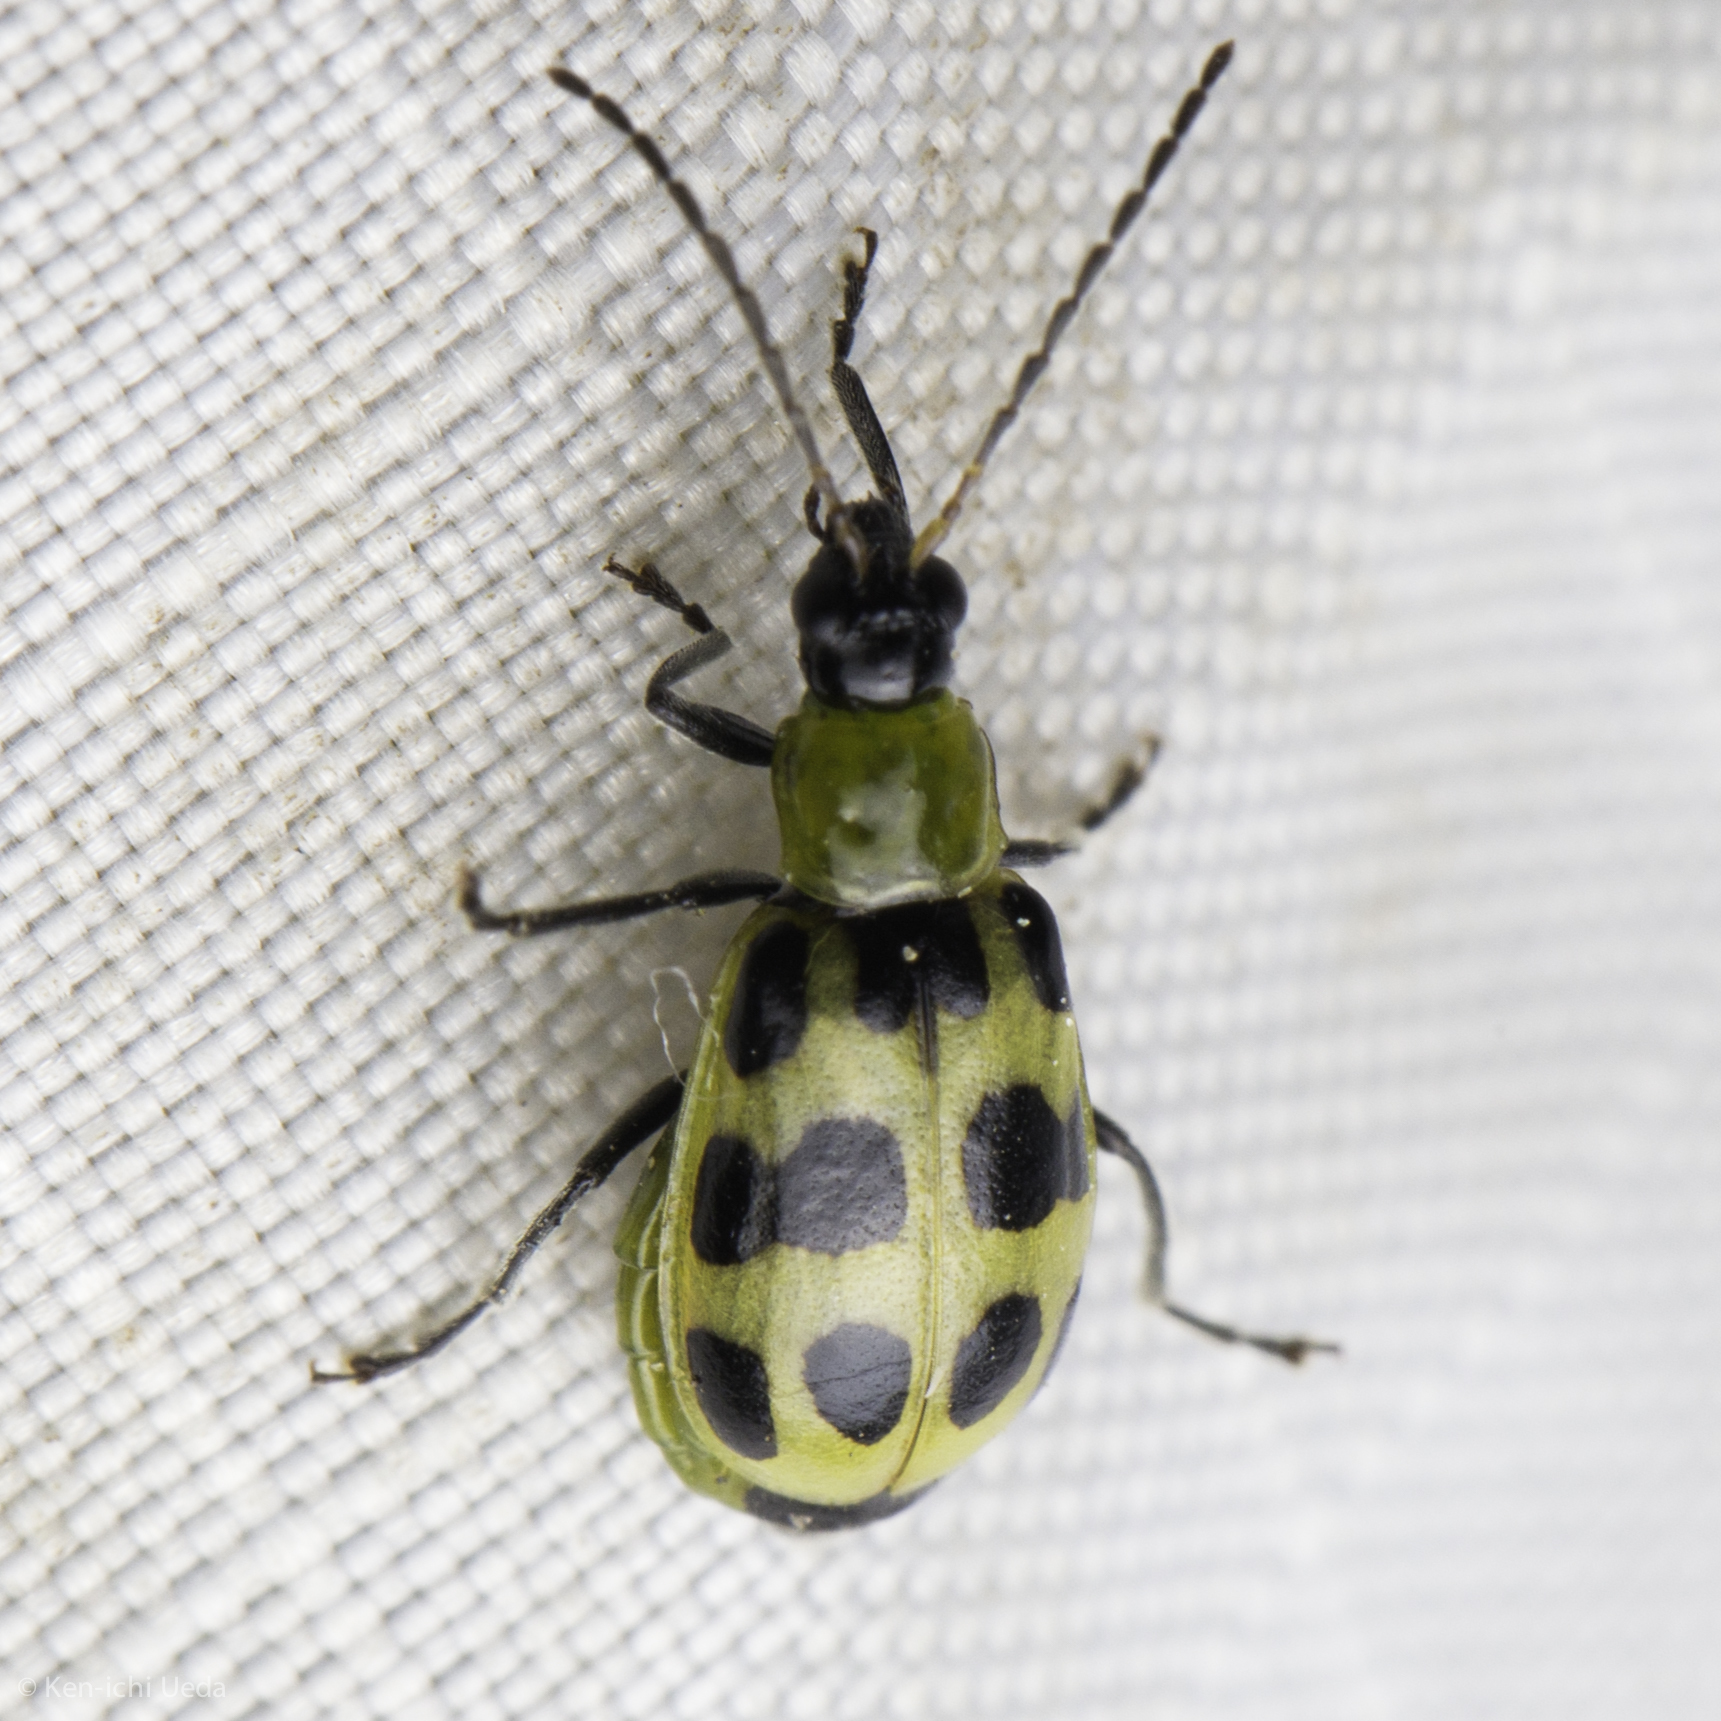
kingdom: Animalia
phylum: Arthropoda
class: Insecta
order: Coleoptera
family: Chrysomelidae
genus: Diabrotica
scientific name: Diabrotica undecimpunctata
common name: Spotted cucumber beetle
